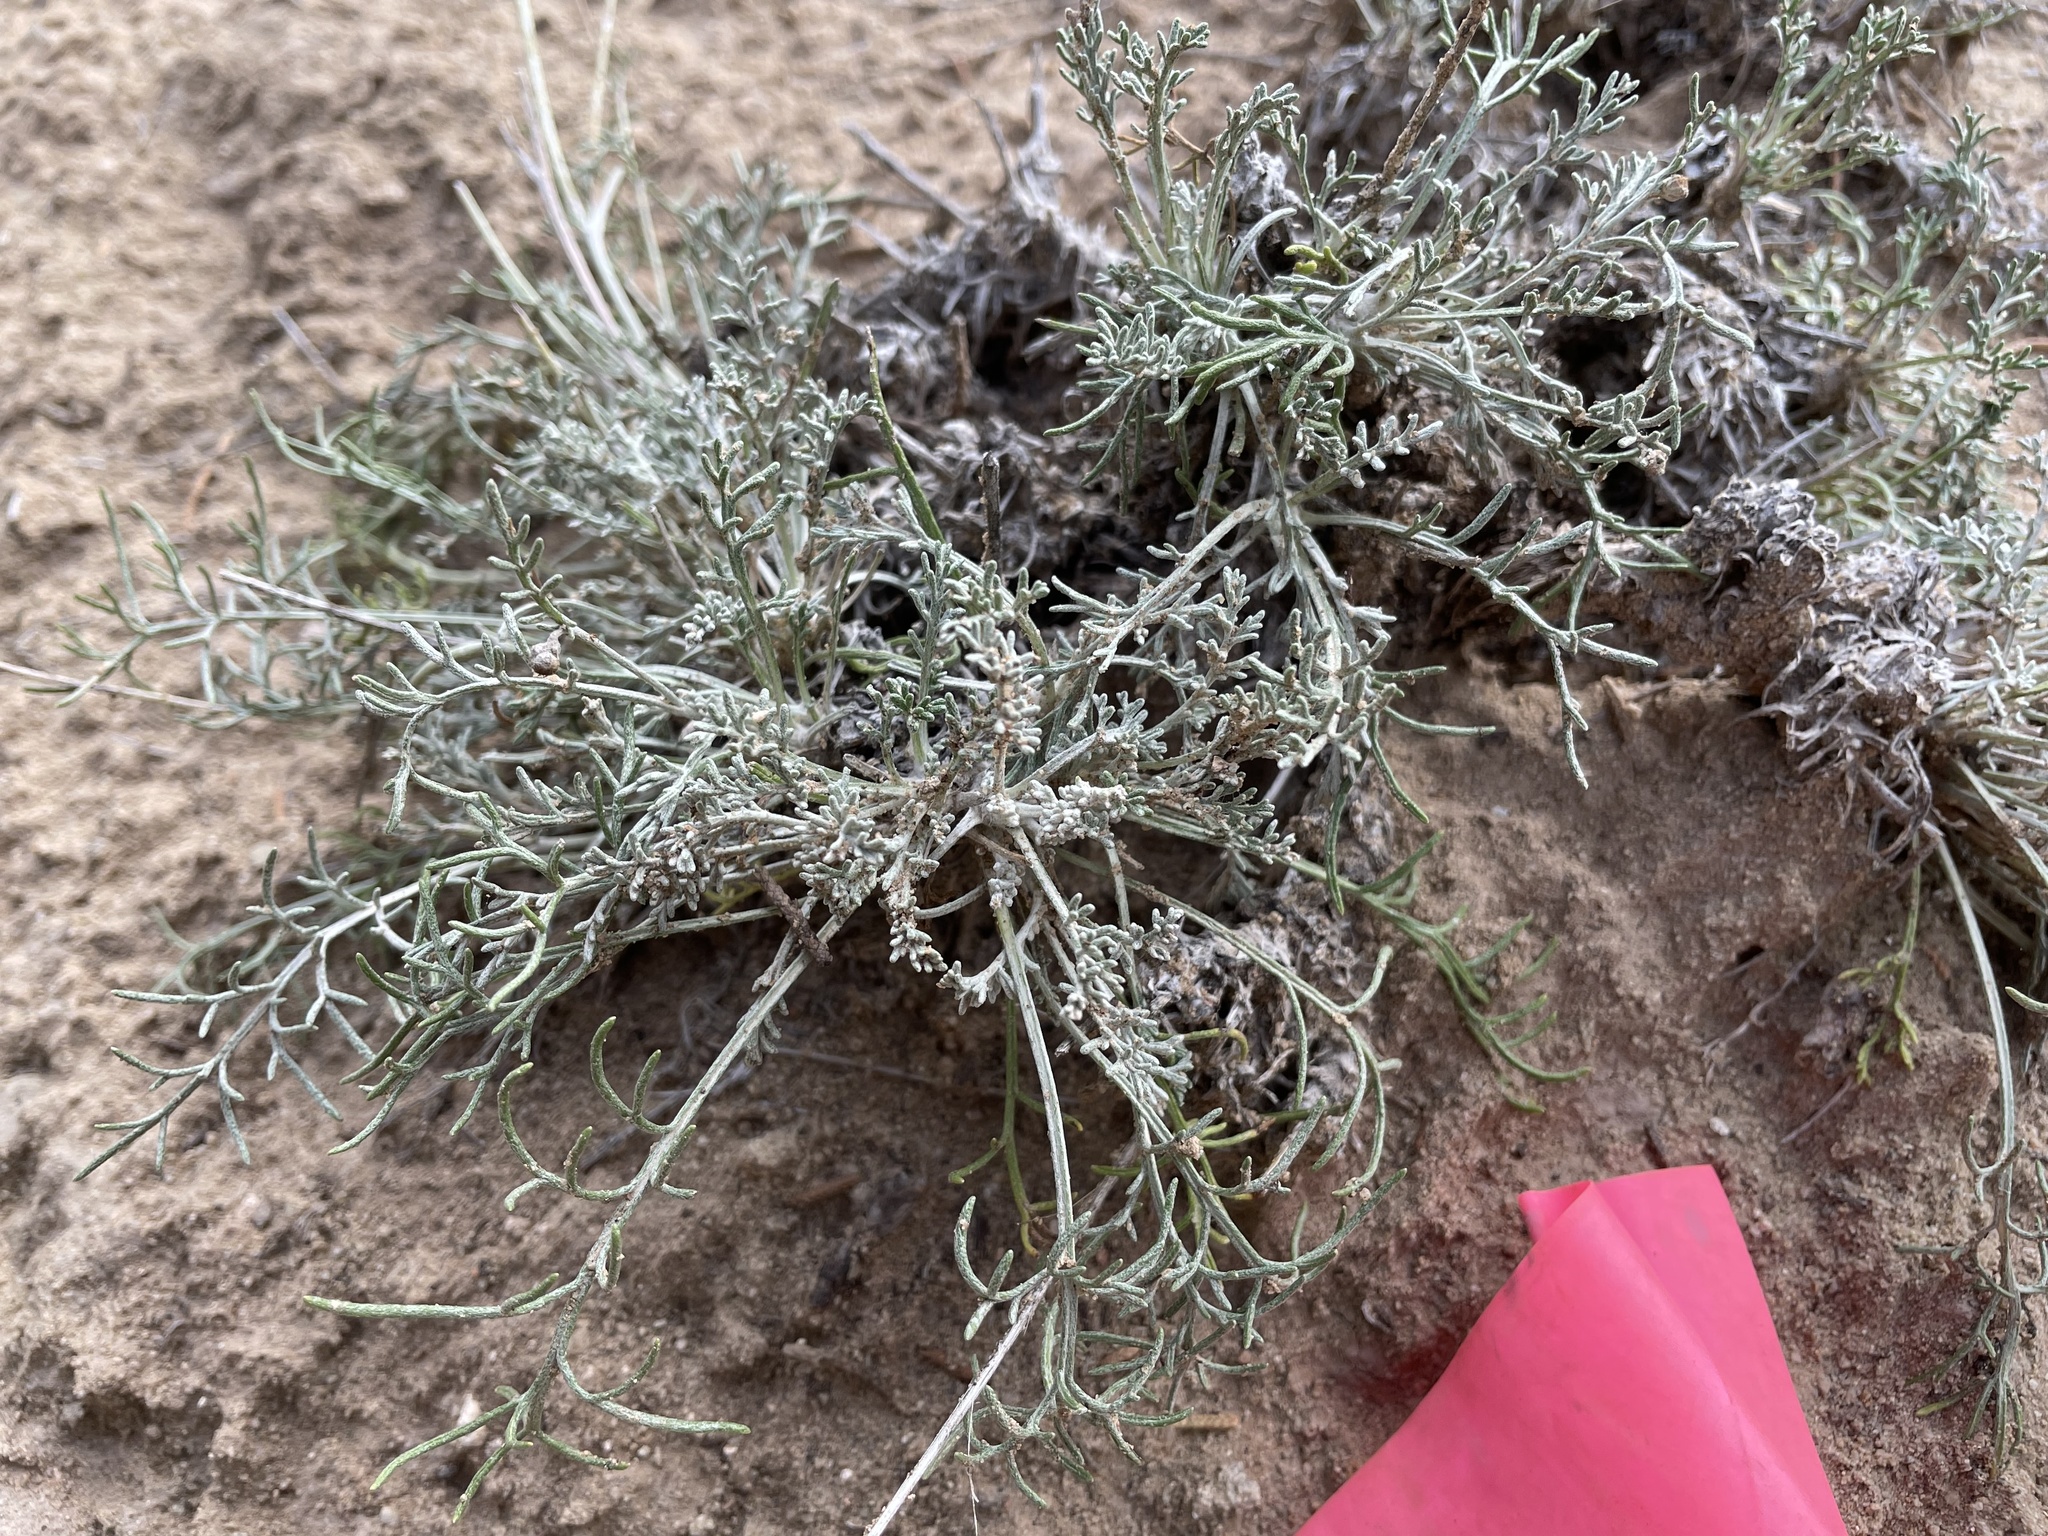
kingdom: Plantae
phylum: Tracheophyta
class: Magnoliopsida
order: Asterales
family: Asteraceae
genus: Hymenopappus
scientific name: Hymenopappus filifolius
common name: Columbia cutleaf
